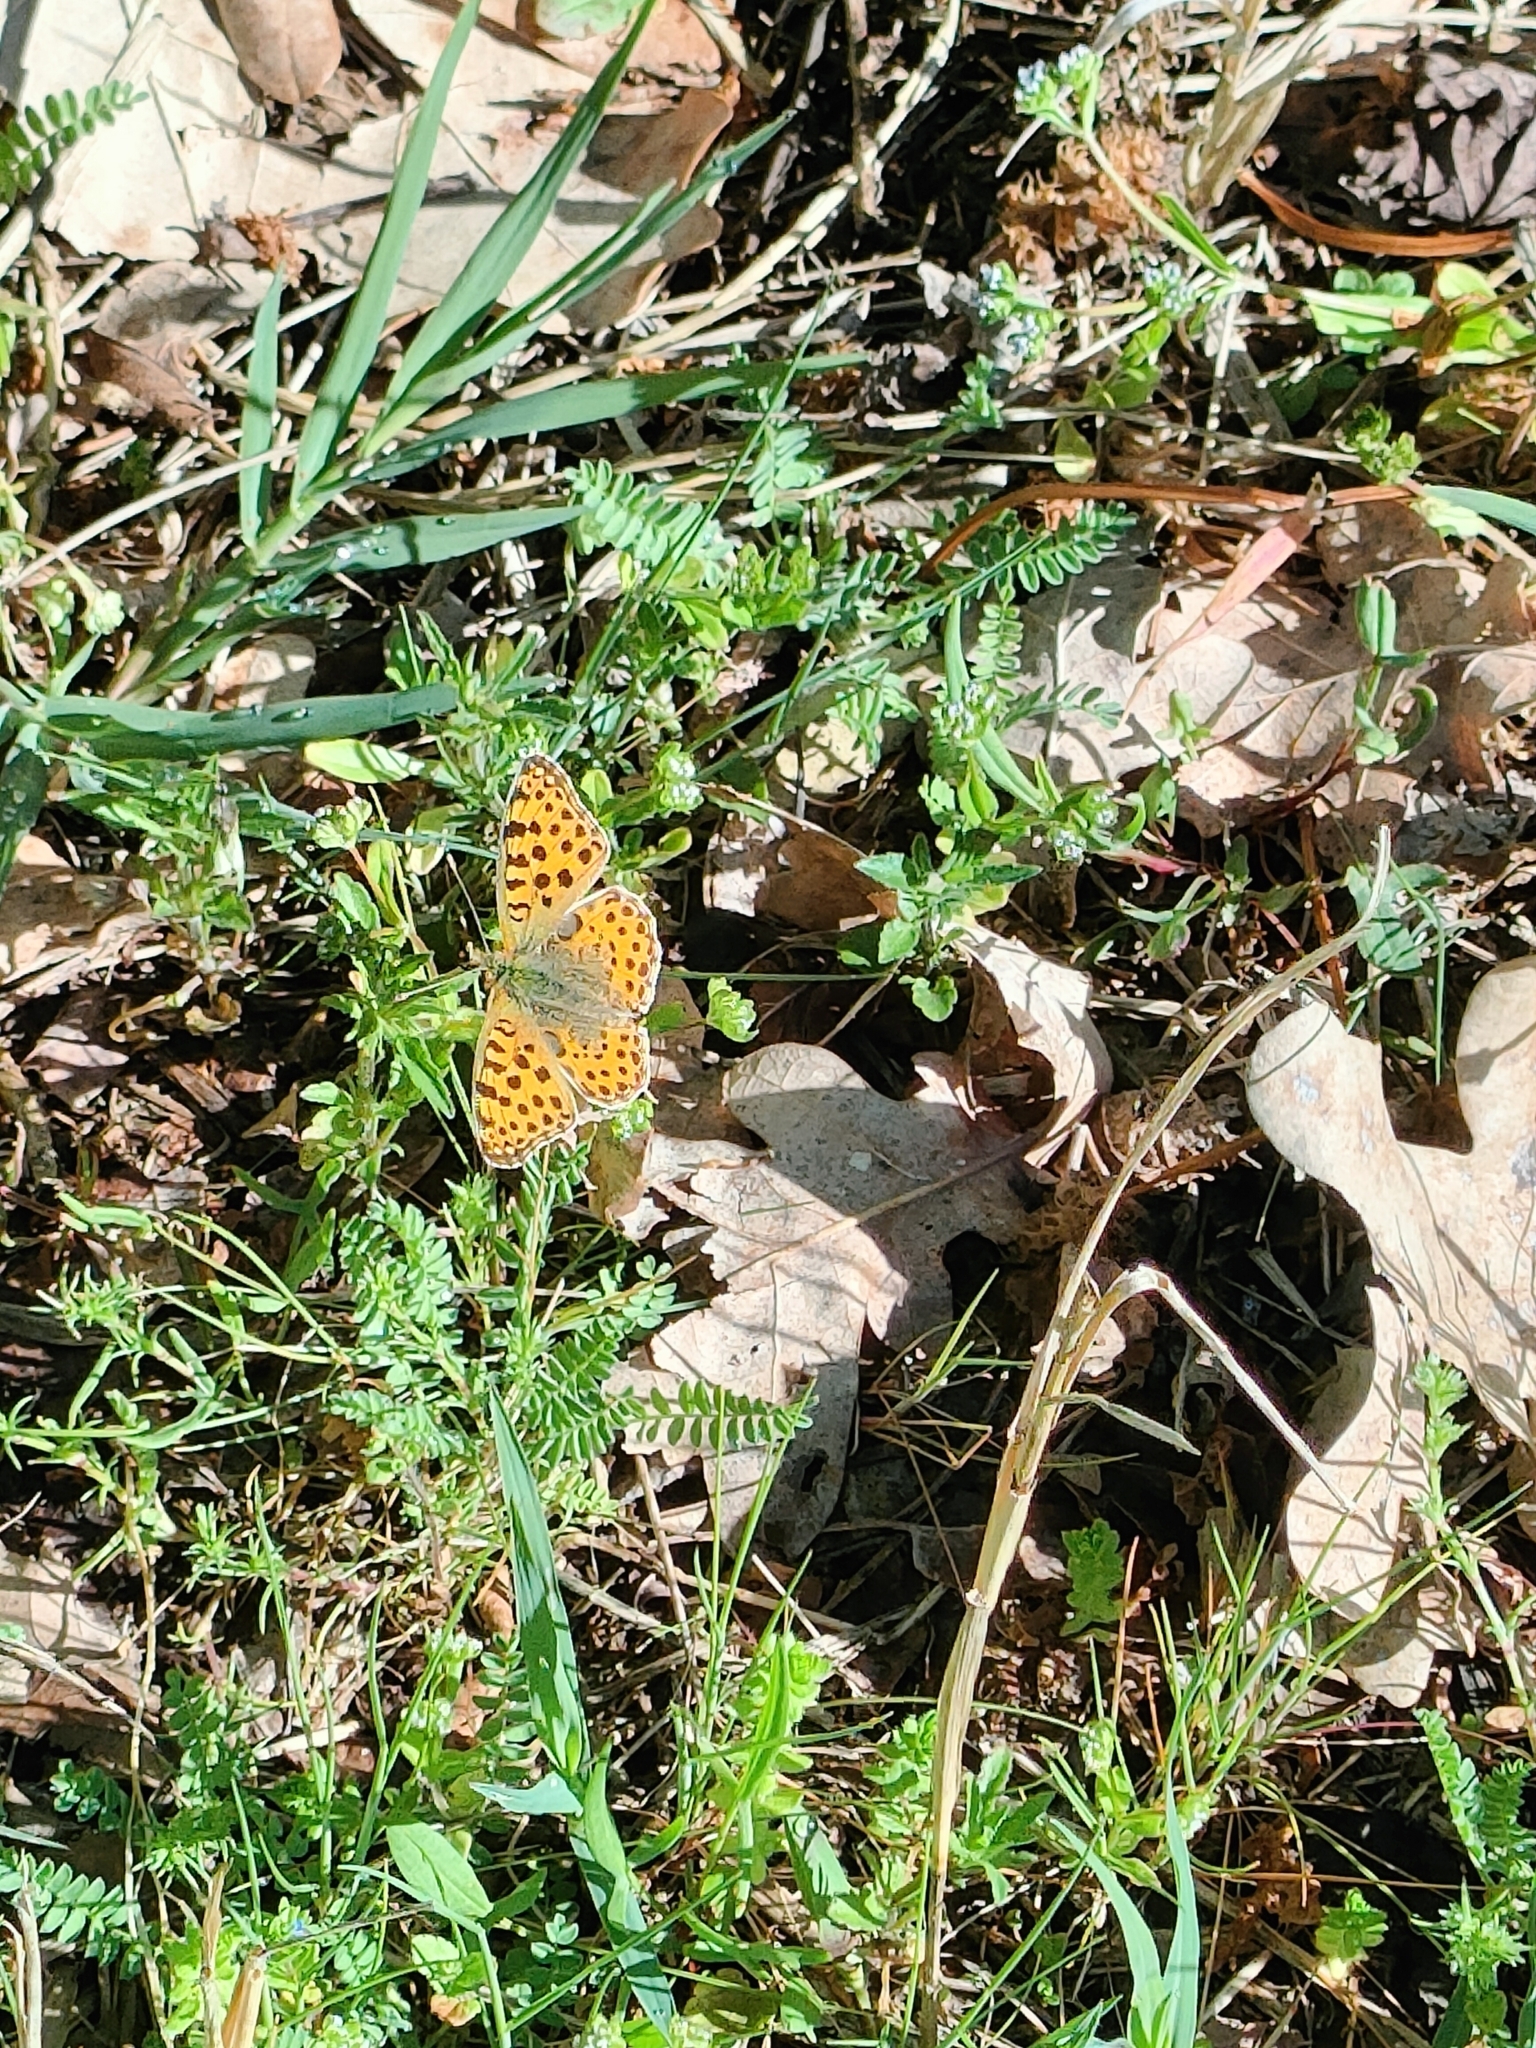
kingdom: Animalia
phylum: Arthropoda
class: Insecta
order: Lepidoptera
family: Nymphalidae
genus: Issoria
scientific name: Issoria lathonia
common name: Queen of spain fritillary
